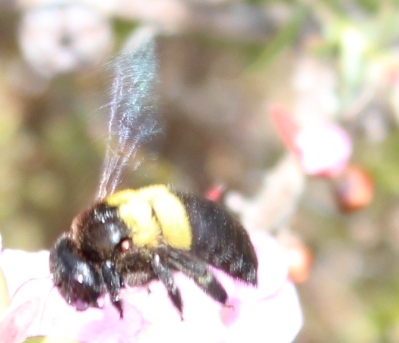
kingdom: Animalia
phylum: Arthropoda
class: Insecta
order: Hymenoptera
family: Apidae
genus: Xylocopa
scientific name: Xylocopa caffra
